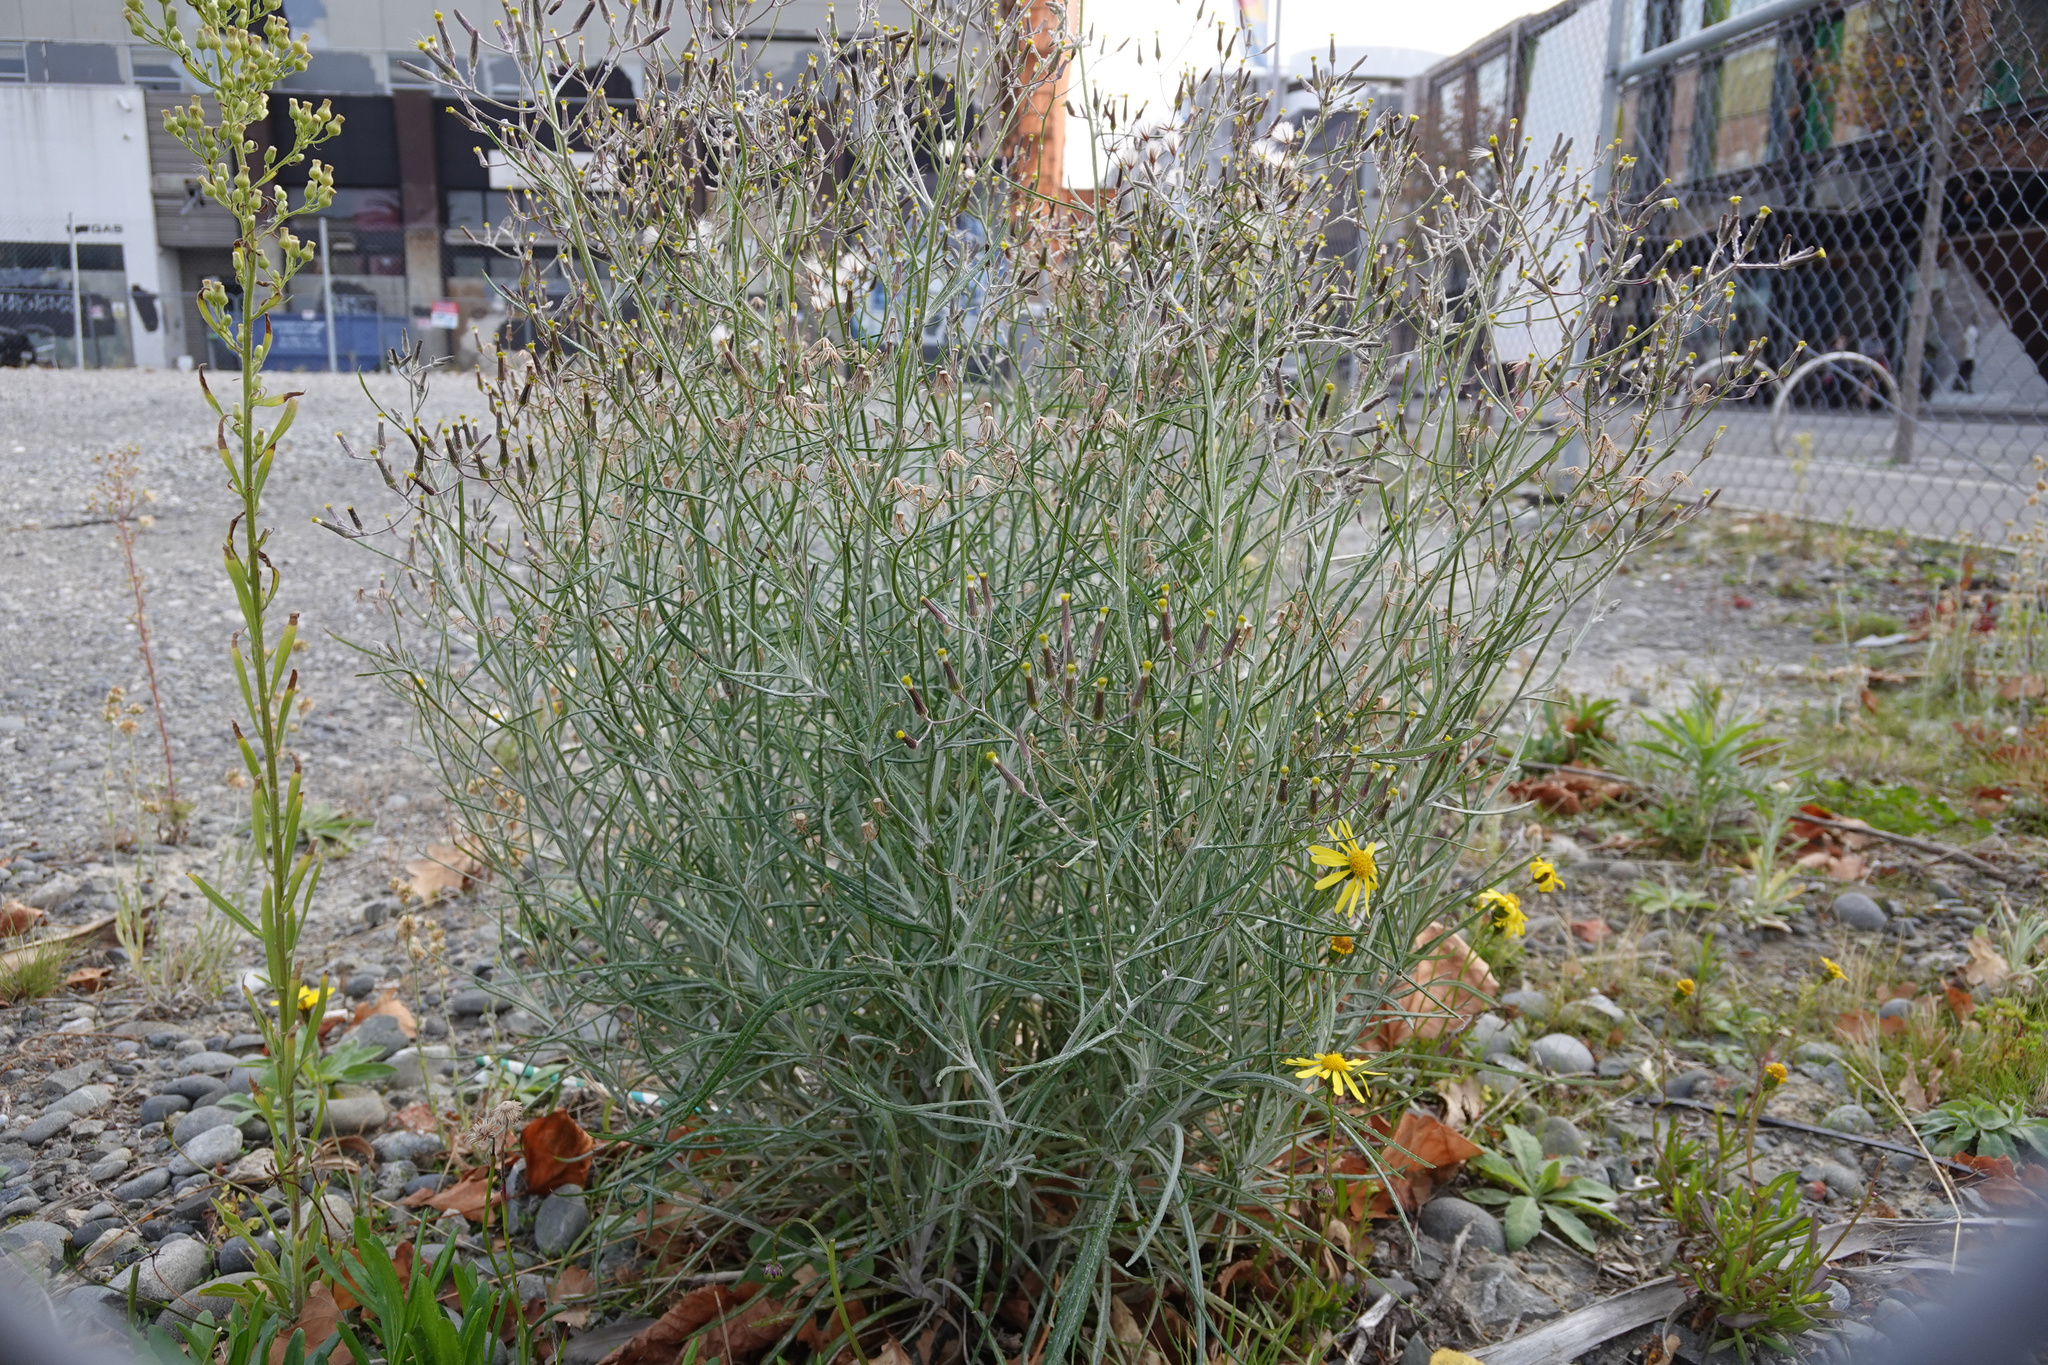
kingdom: Plantae
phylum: Tracheophyta
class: Magnoliopsida
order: Asterales
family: Asteraceae
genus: Senecio
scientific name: Senecio quadridentatus
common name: Cotton fireweed
